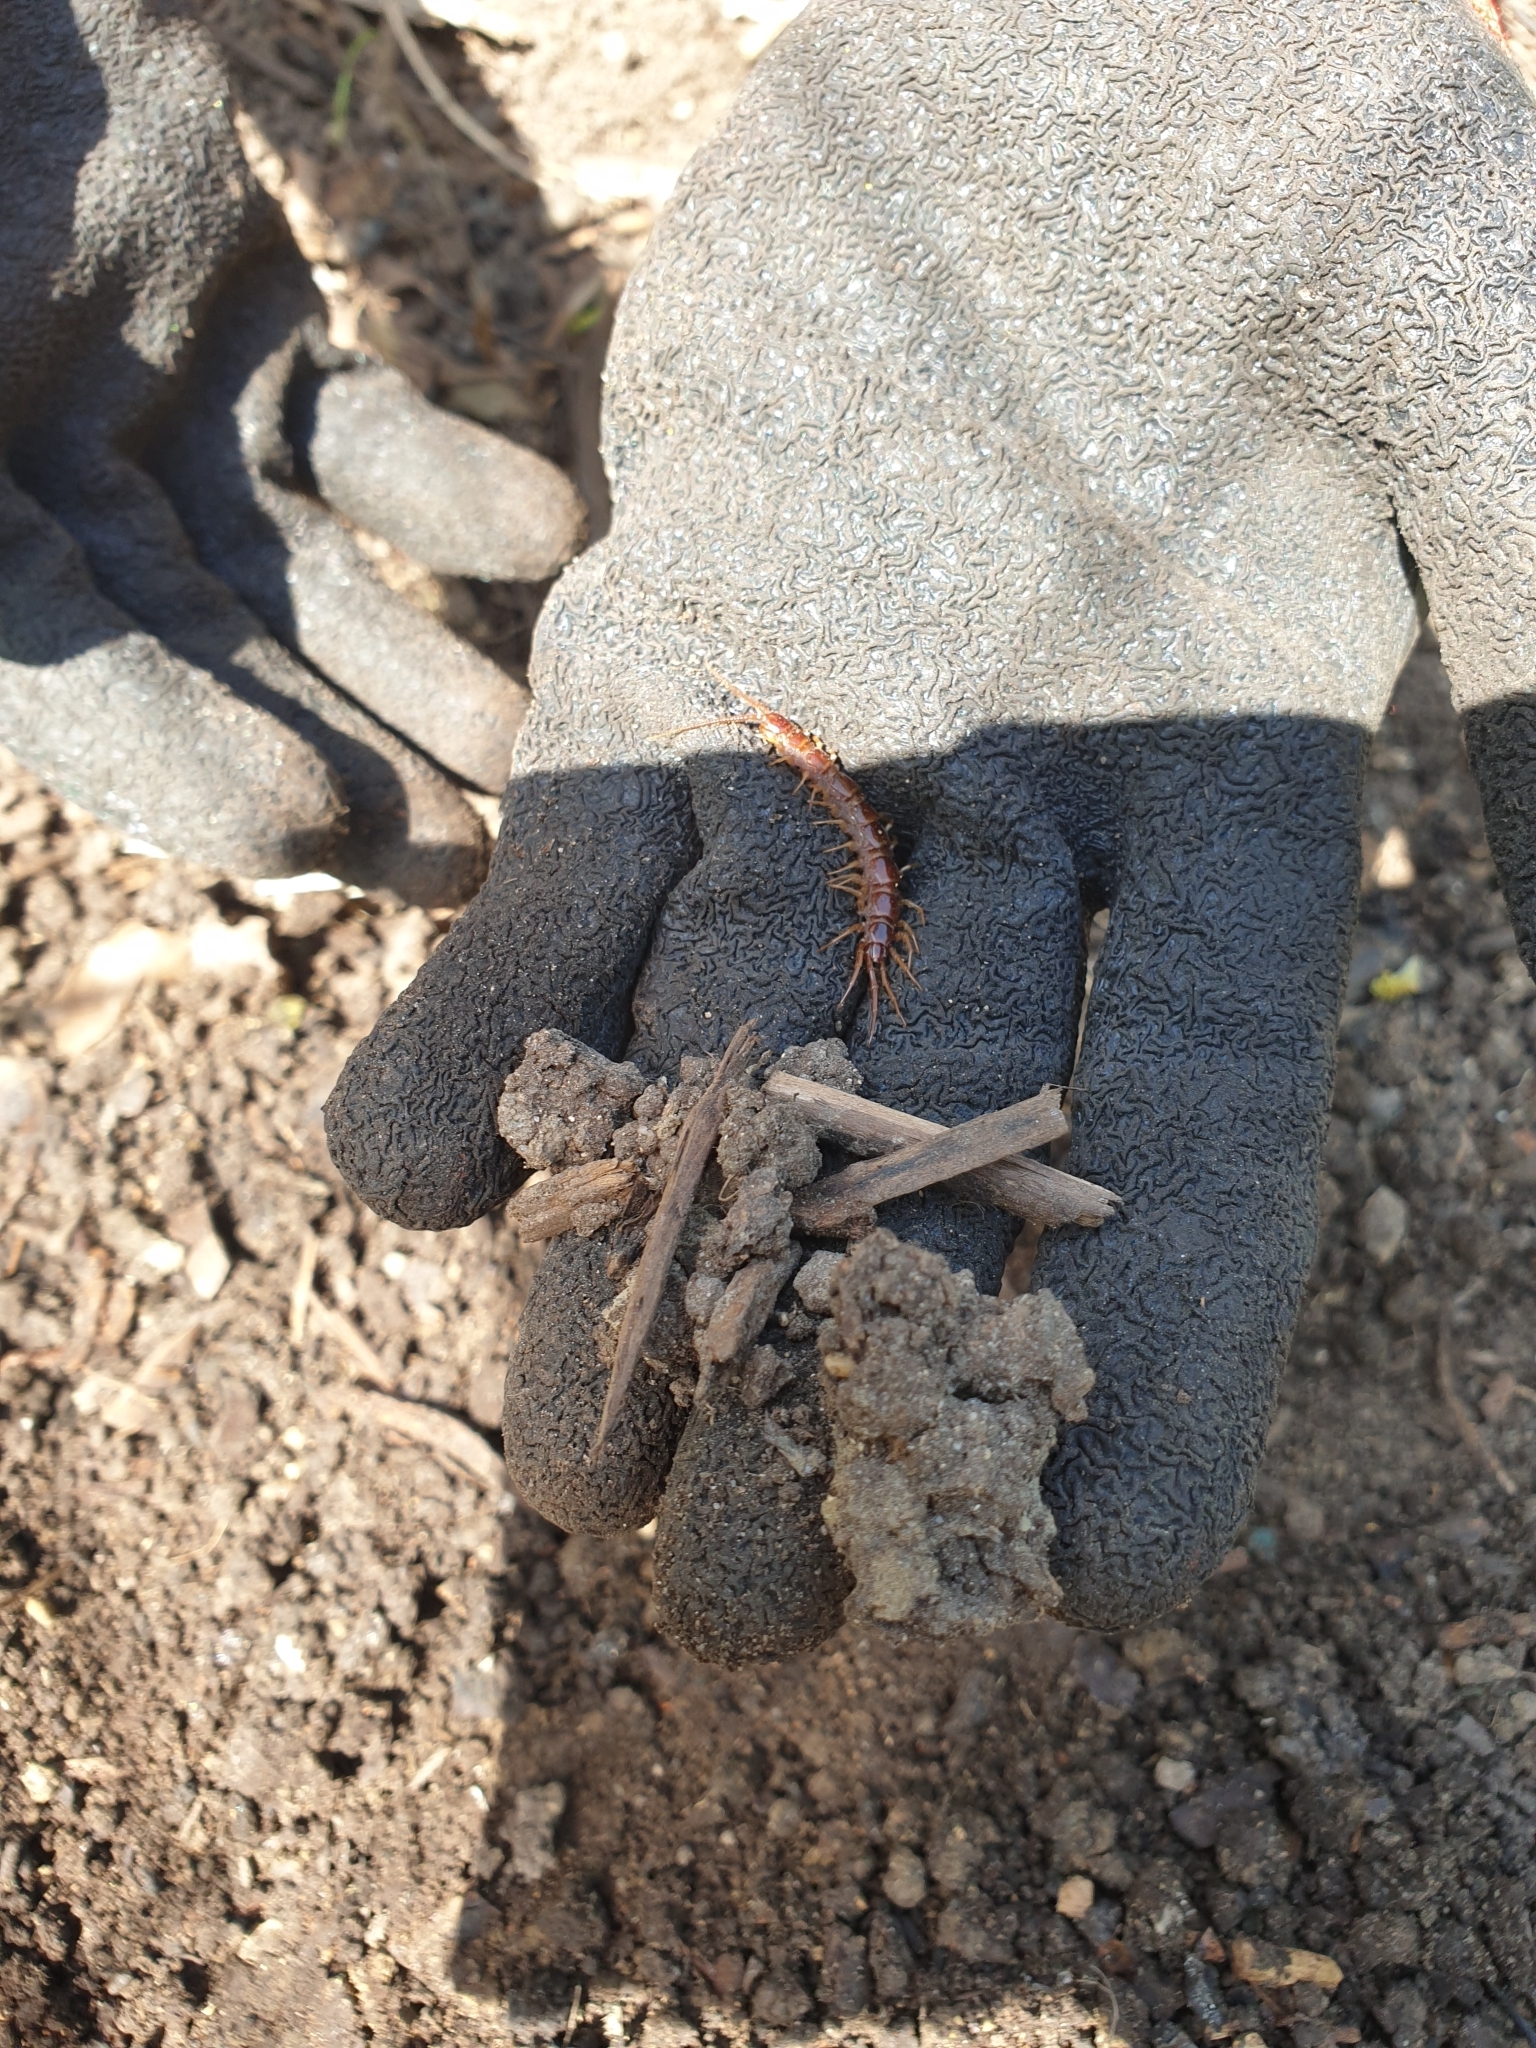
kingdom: Animalia
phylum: Arthropoda
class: Chilopoda
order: Lithobiomorpha
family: Lithobiidae
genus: Lithobius
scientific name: Lithobius forficatus
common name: Centipede
